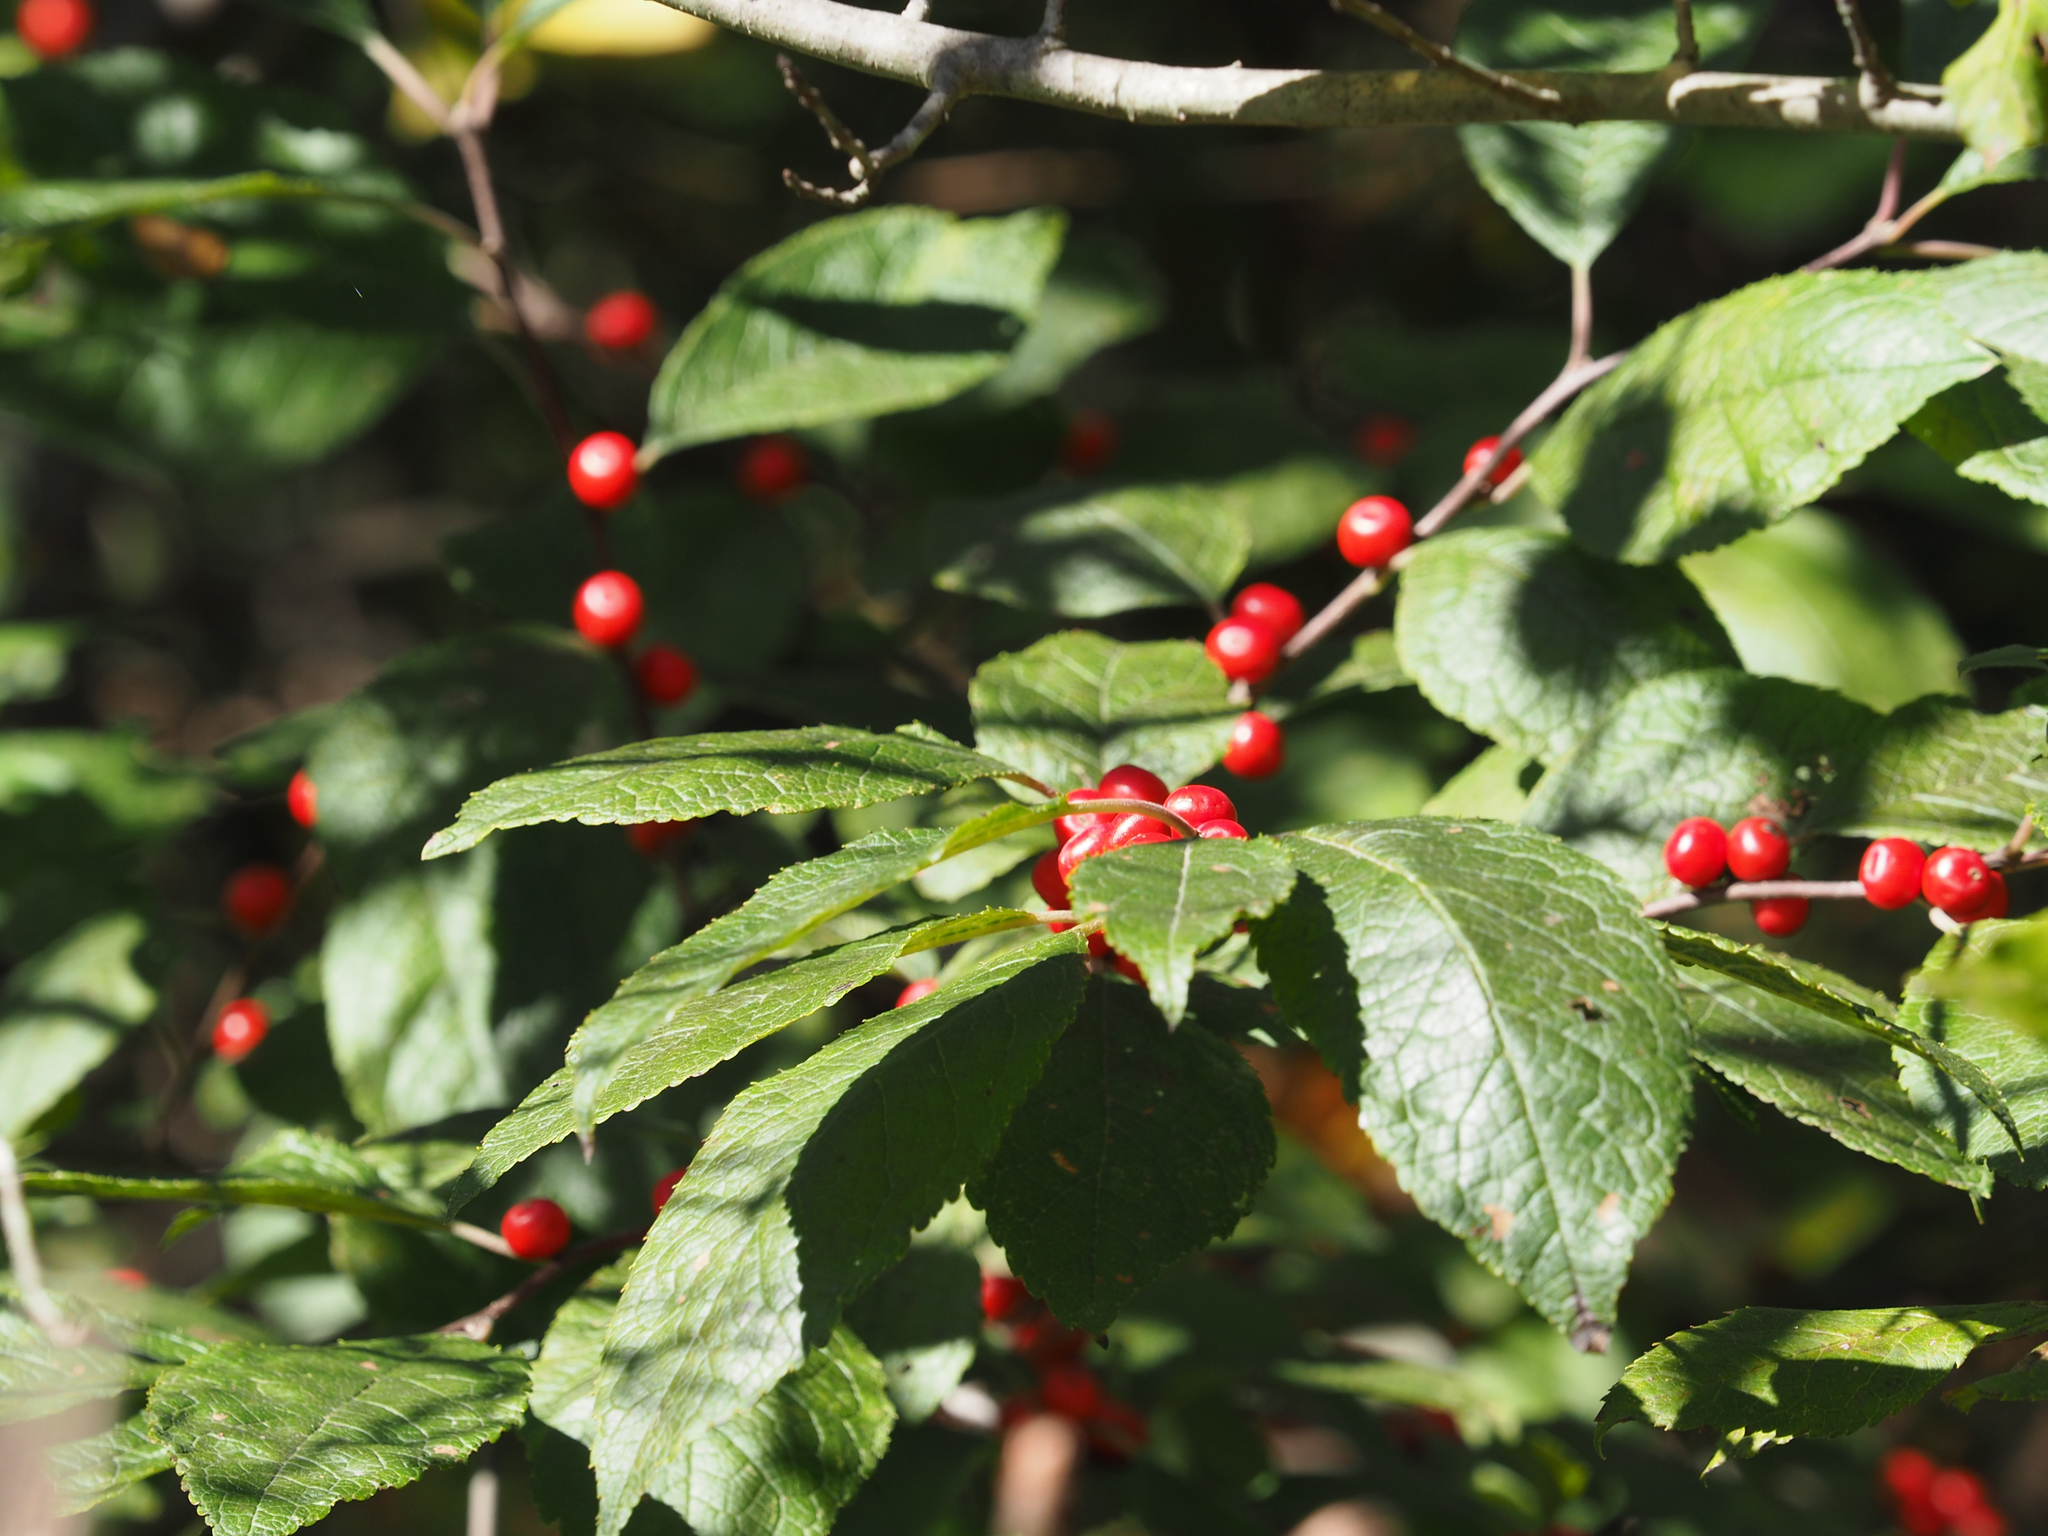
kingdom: Plantae
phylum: Tracheophyta
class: Magnoliopsida
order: Aquifoliales
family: Aquifoliaceae
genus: Ilex
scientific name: Ilex verticillata
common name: Virginia winterberry
